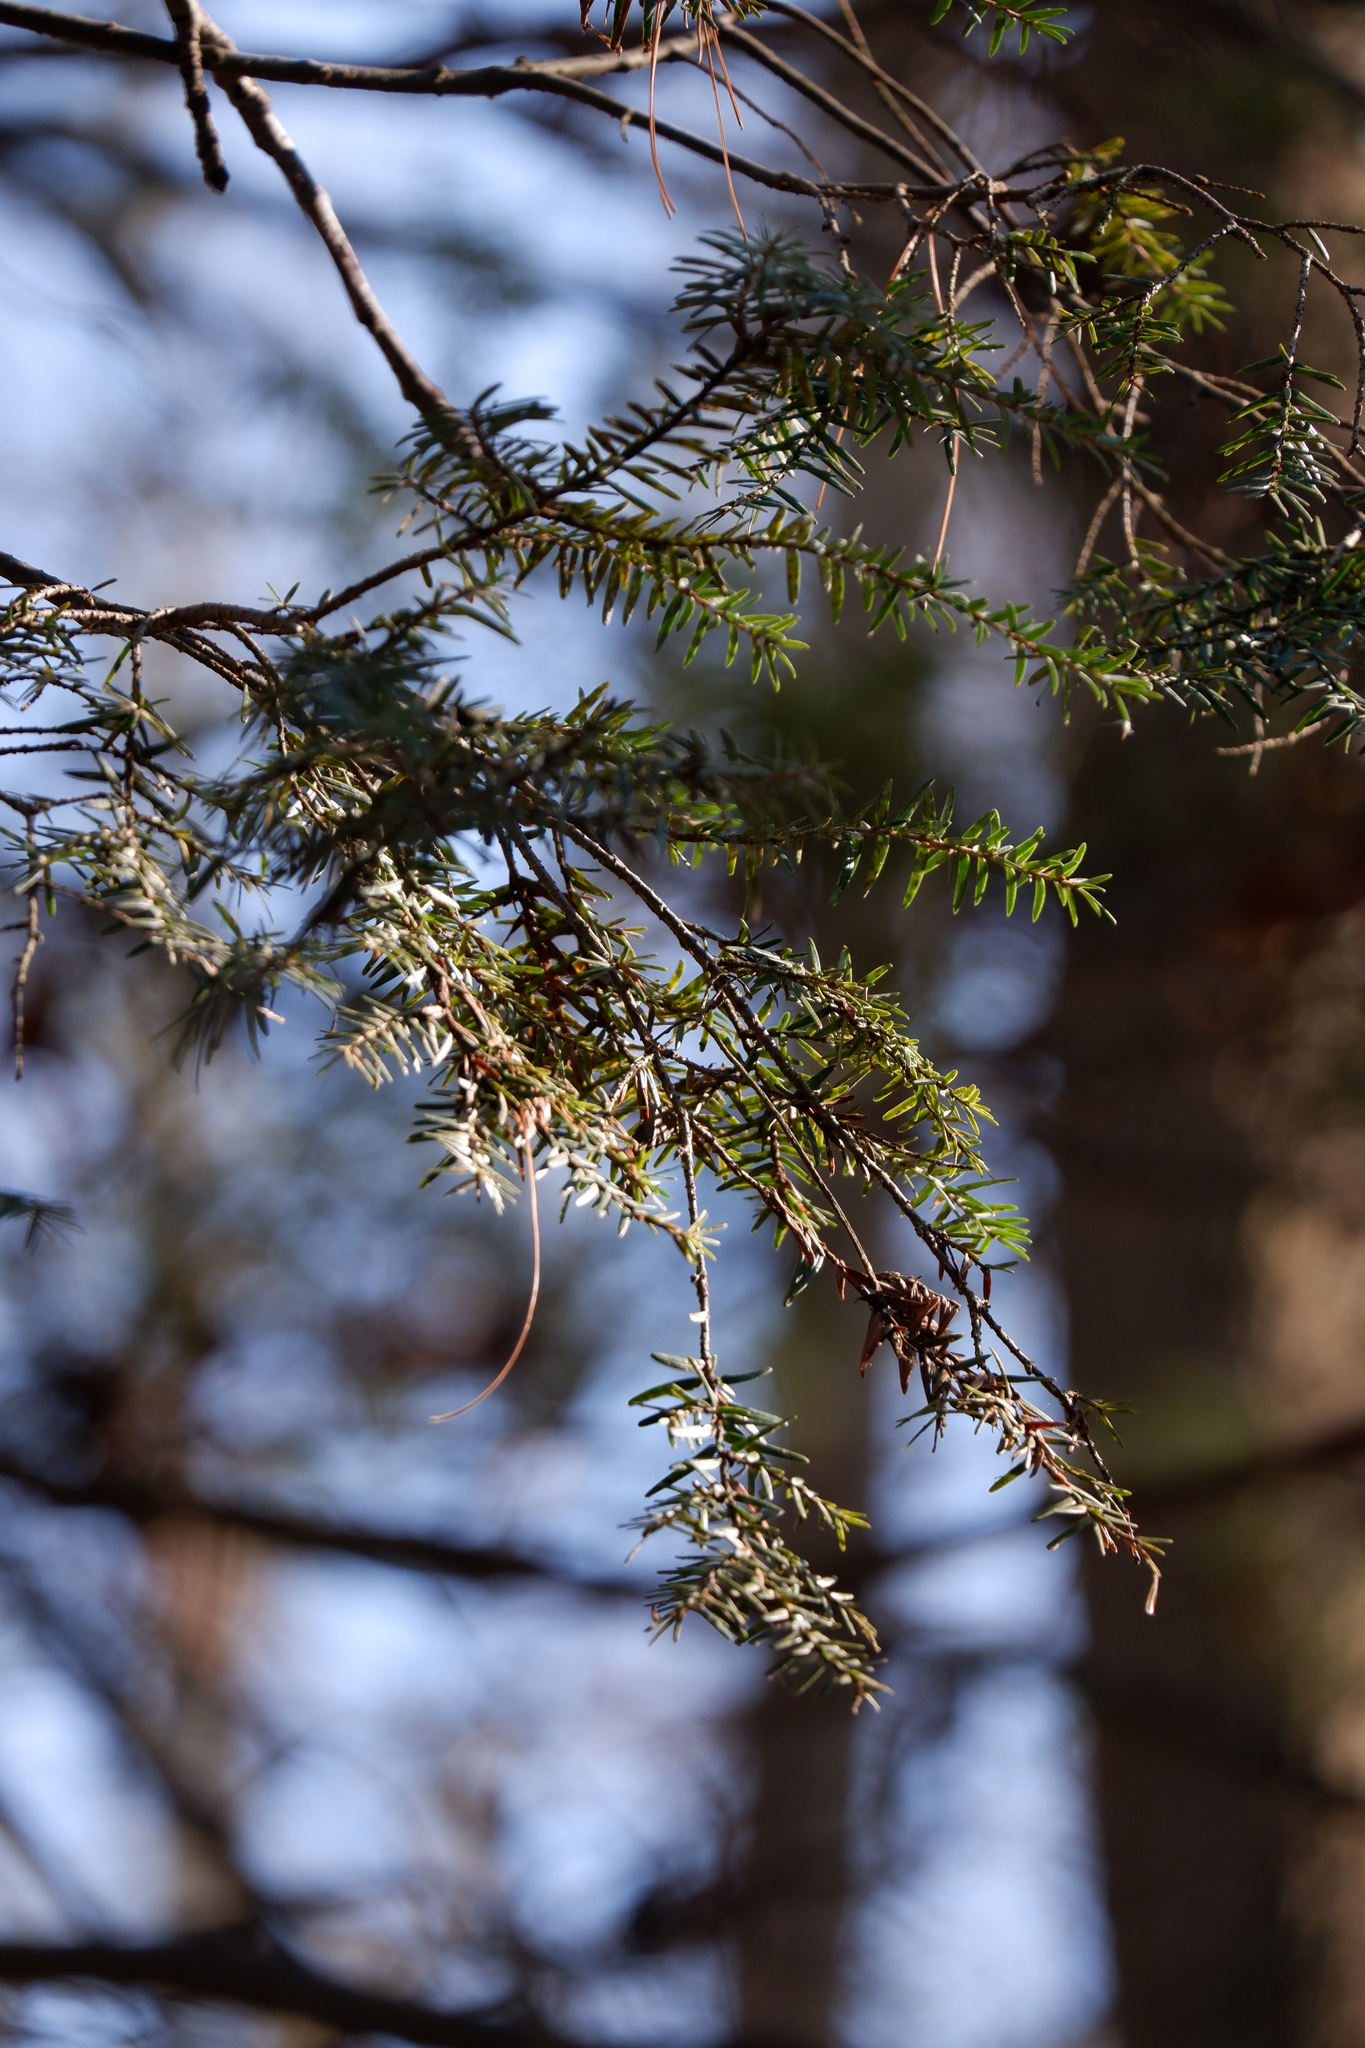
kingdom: Plantae
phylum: Tracheophyta
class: Pinopsida
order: Pinales
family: Pinaceae
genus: Tsuga
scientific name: Tsuga canadensis
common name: Eastern hemlock
